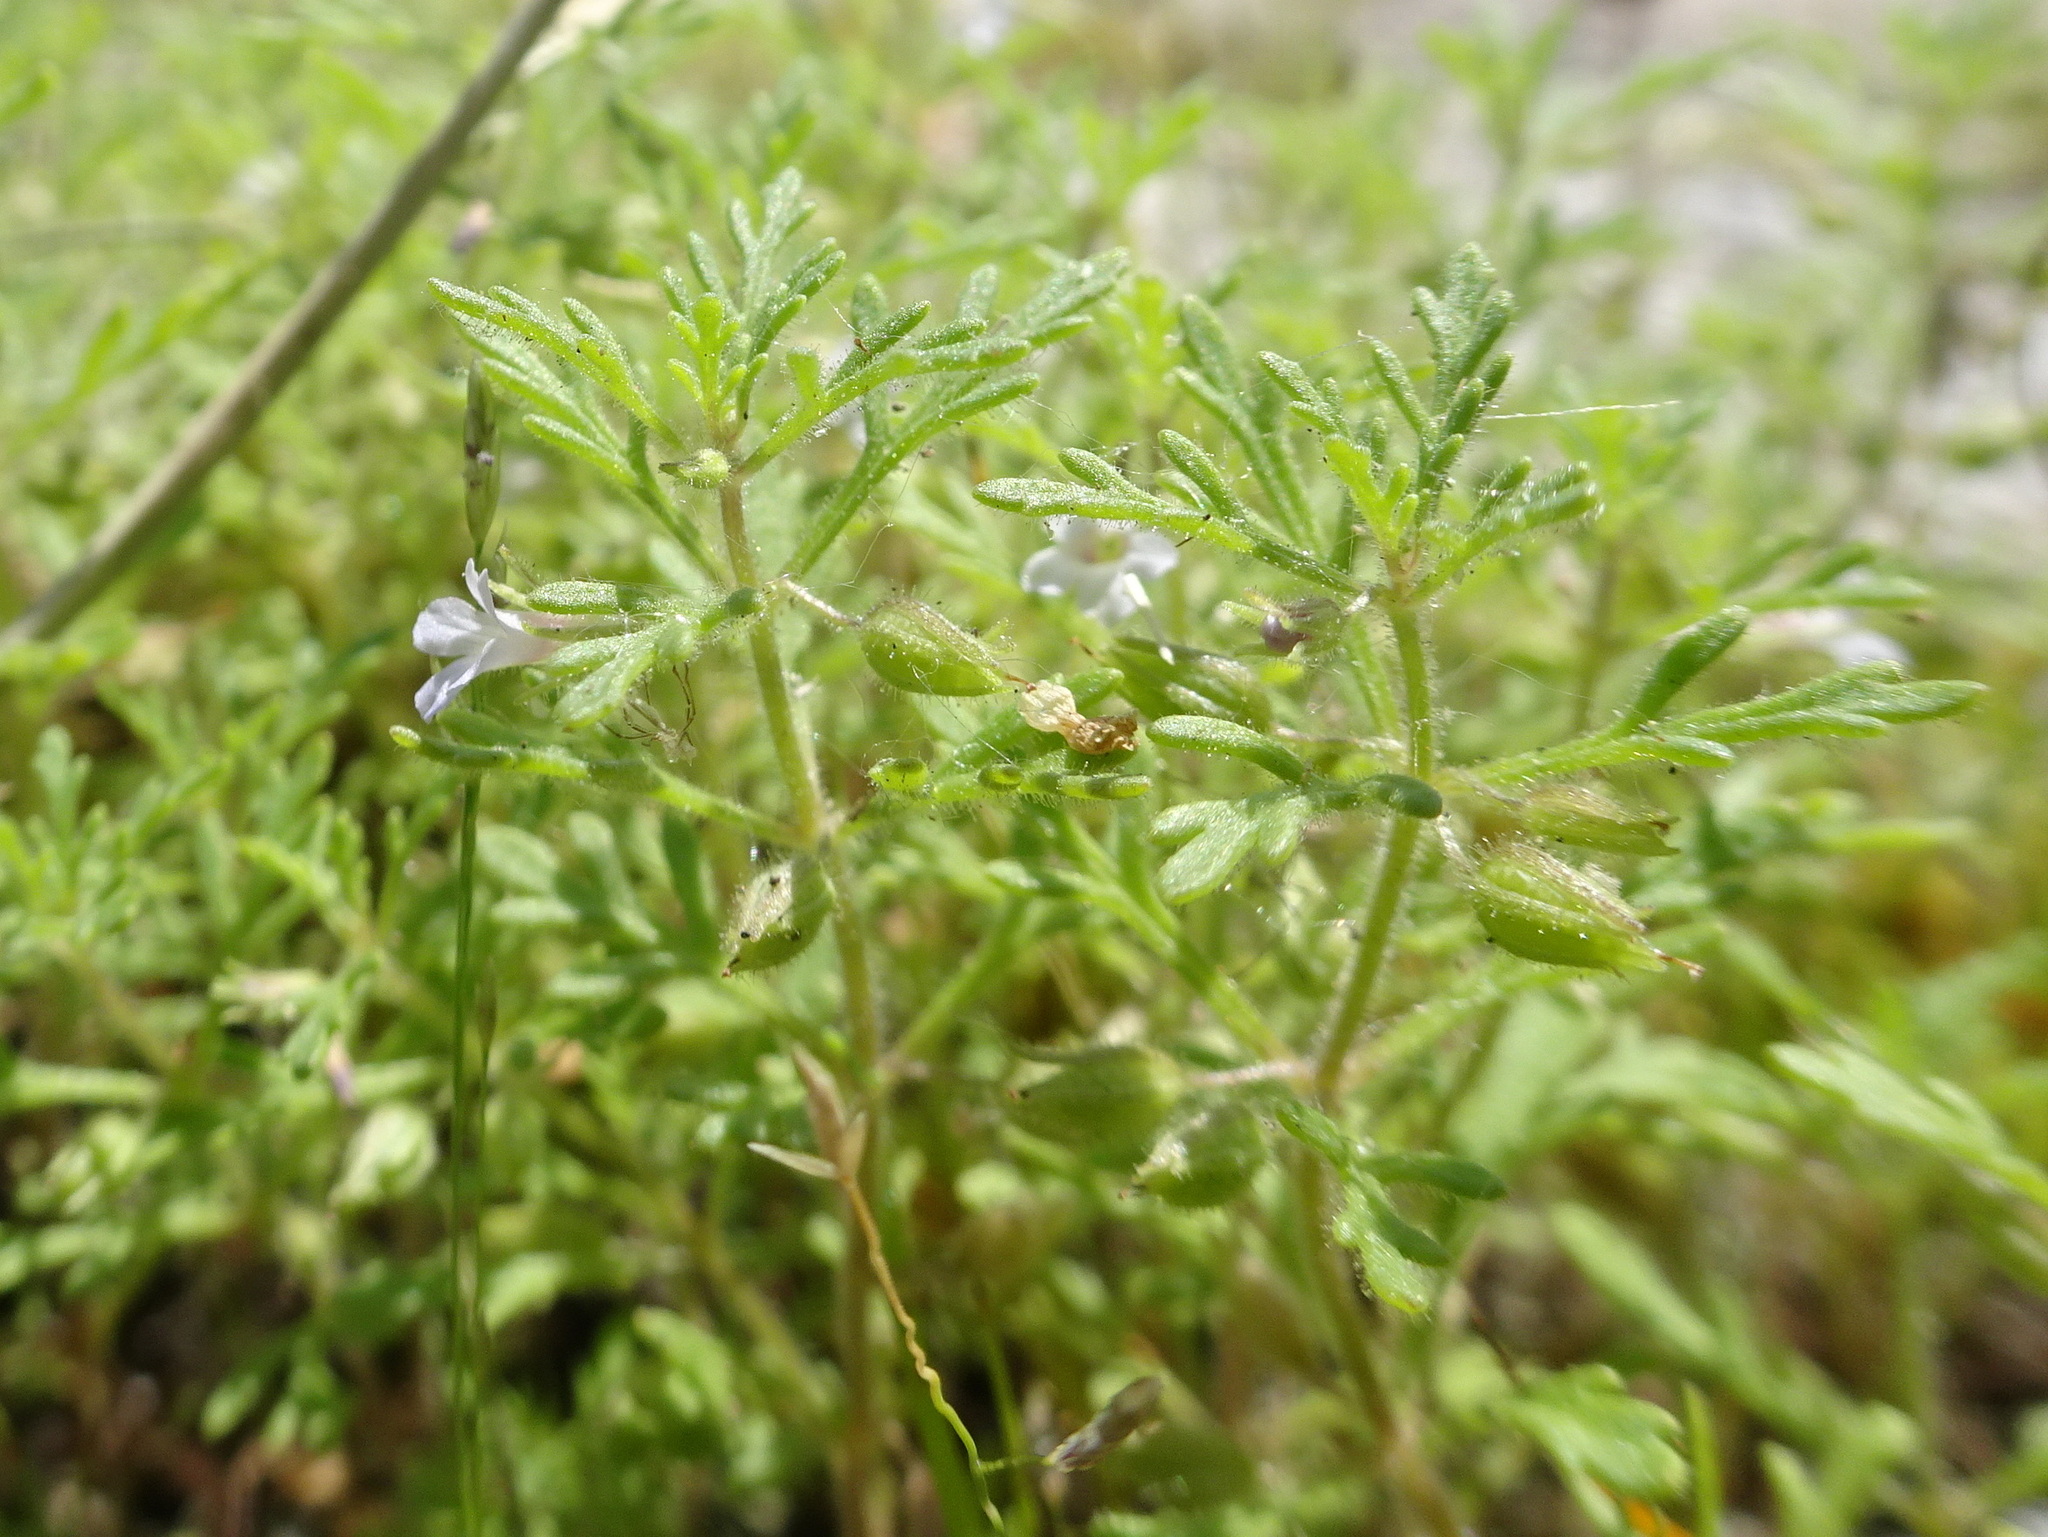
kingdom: Plantae
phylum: Tracheophyta
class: Magnoliopsida
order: Lamiales
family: Plantaginaceae
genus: Leucospora
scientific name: Leucospora multifida
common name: Narrow-leaf paleseed
